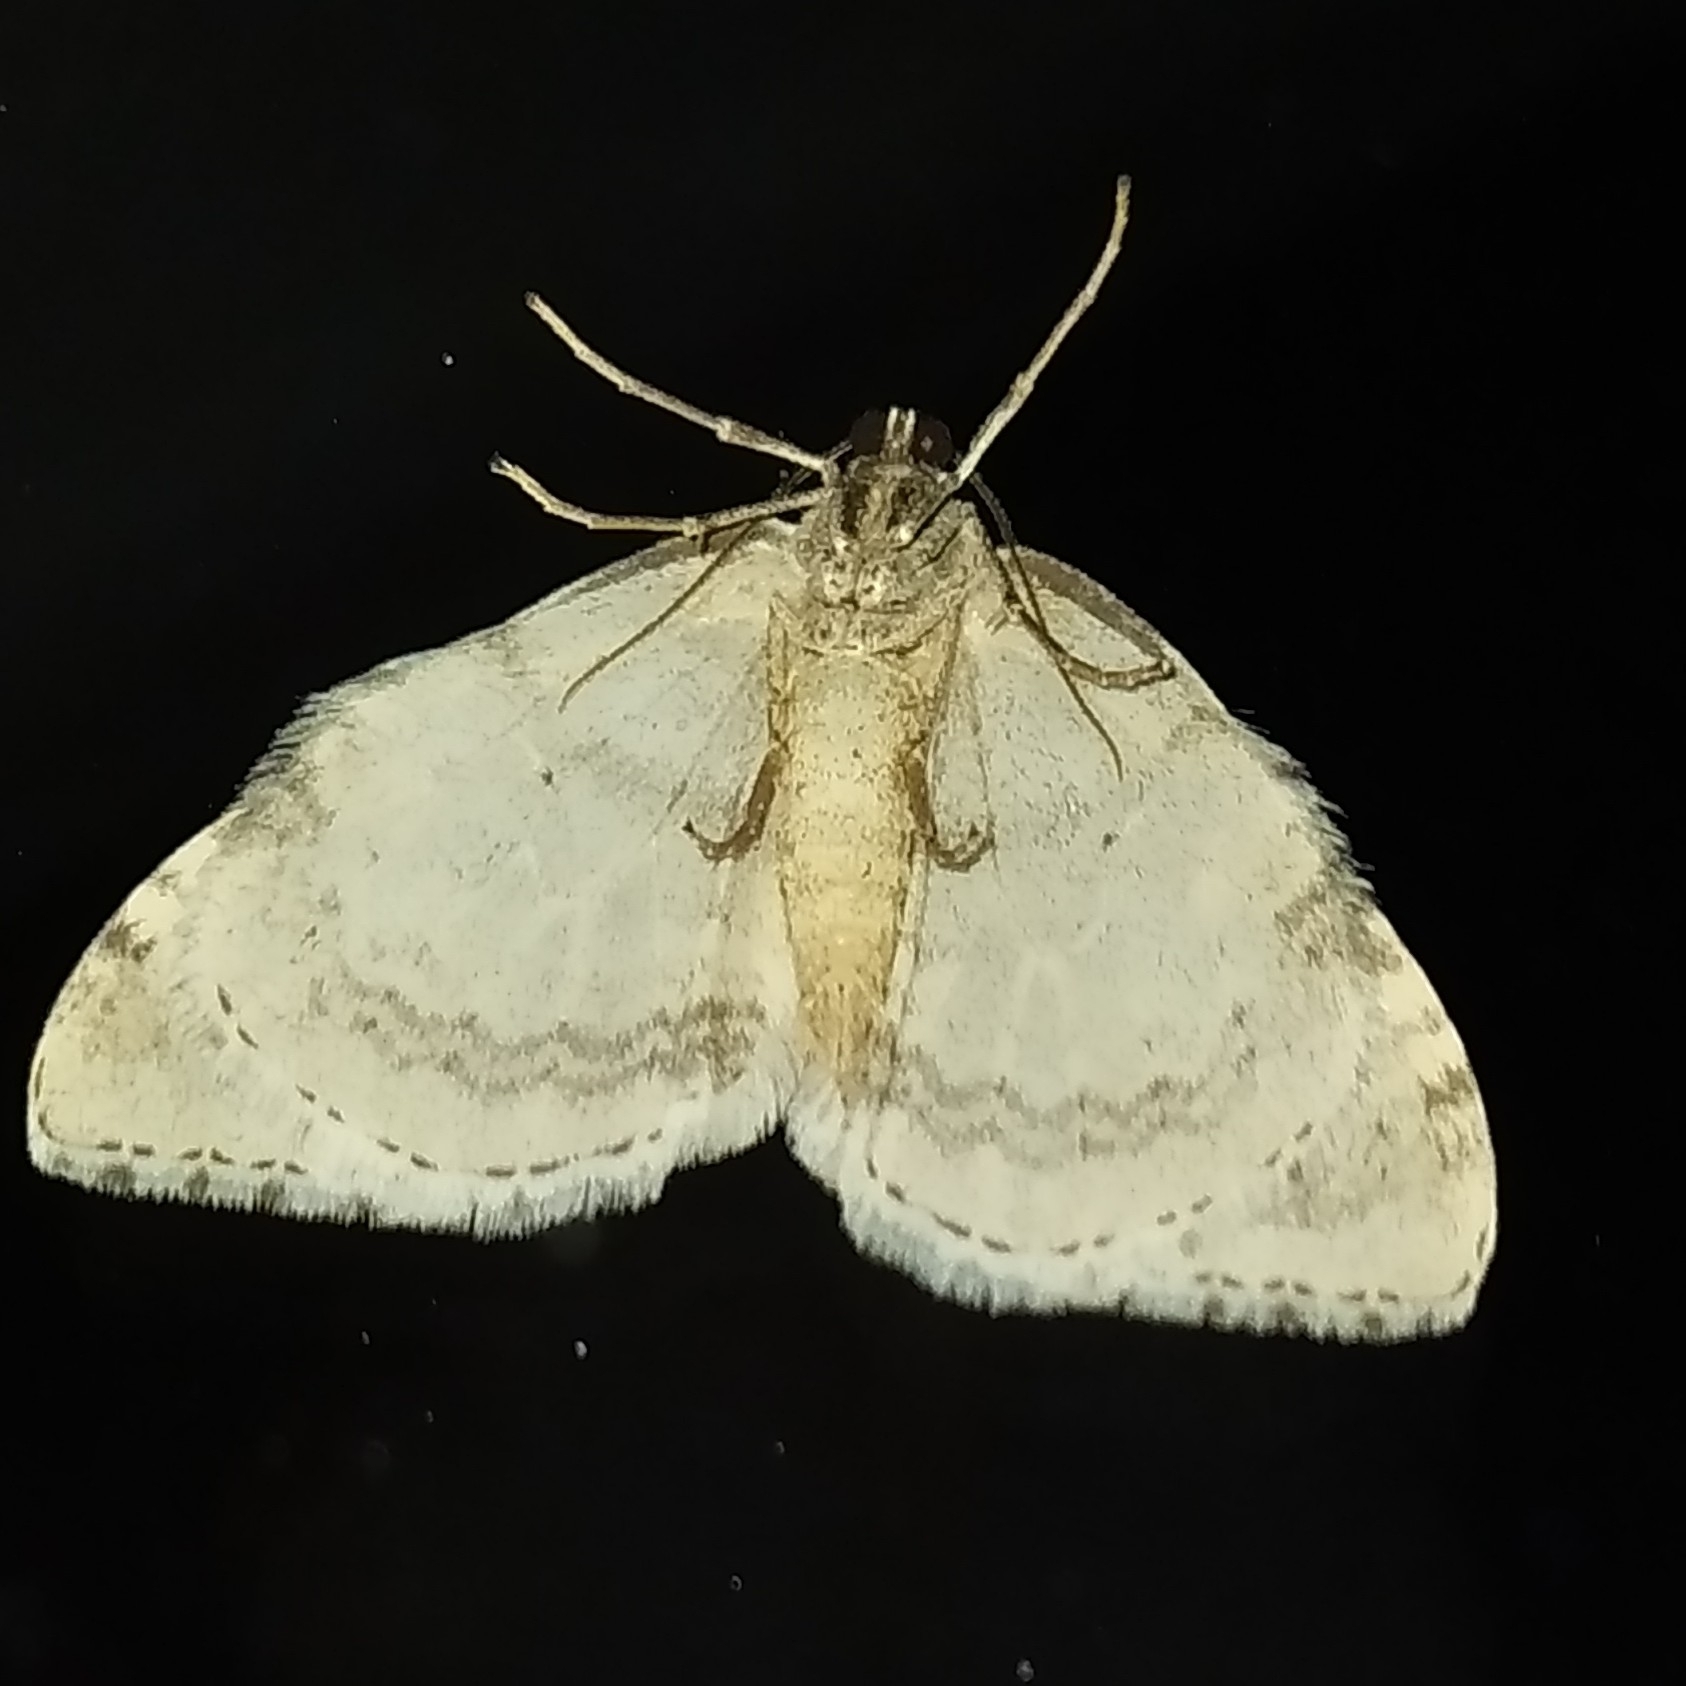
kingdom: Animalia
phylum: Arthropoda
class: Insecta
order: Lepidoptera
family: Geometridae
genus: Epirrita
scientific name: Epirrita autumnata
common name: Autumnal moth
